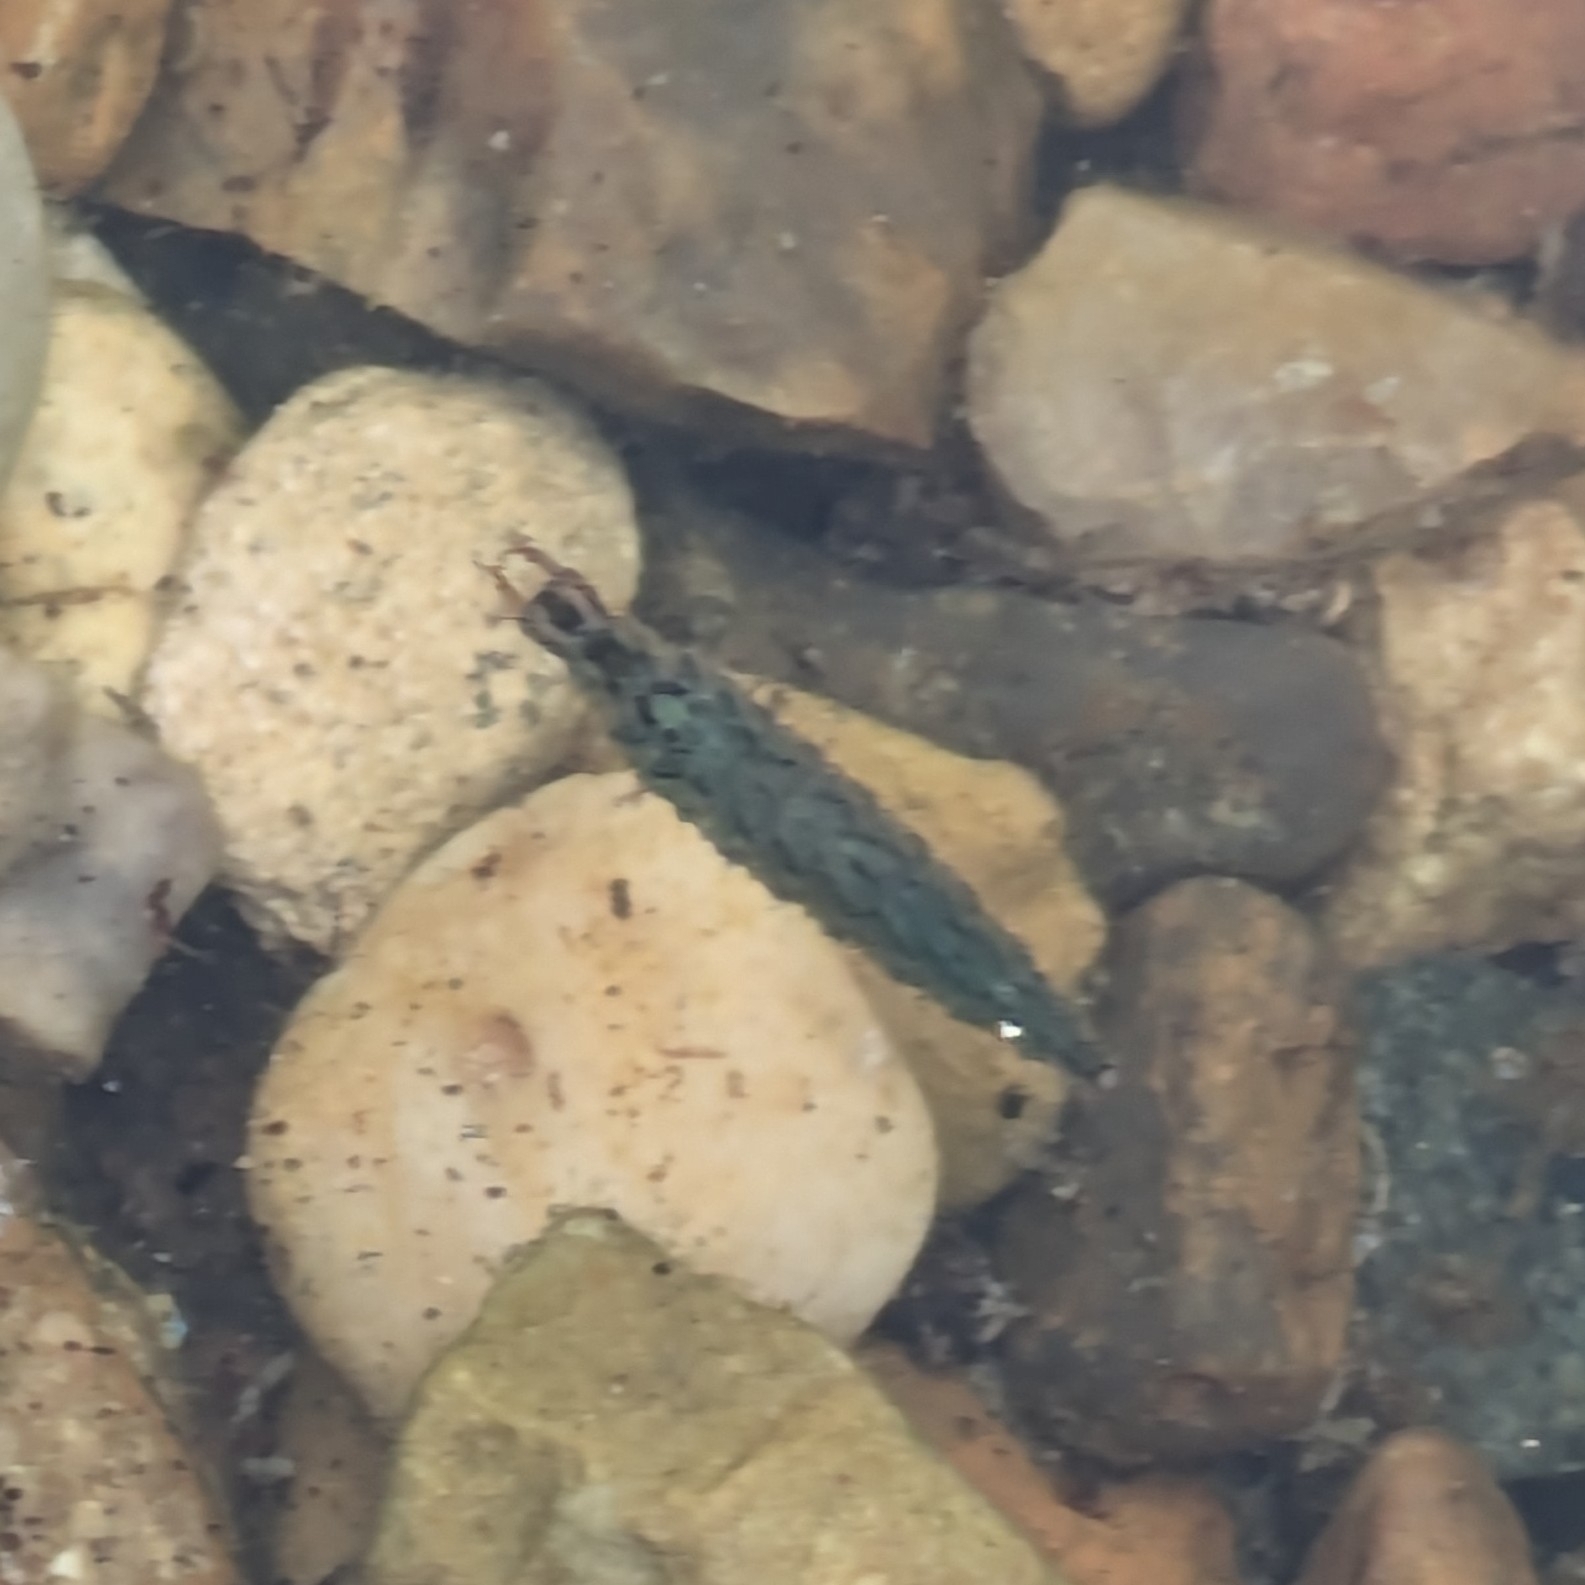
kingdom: Animalia
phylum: Arthropoda
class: Insecta
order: Coleoptera
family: Hydrophilidae
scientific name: Hydrophilidae
